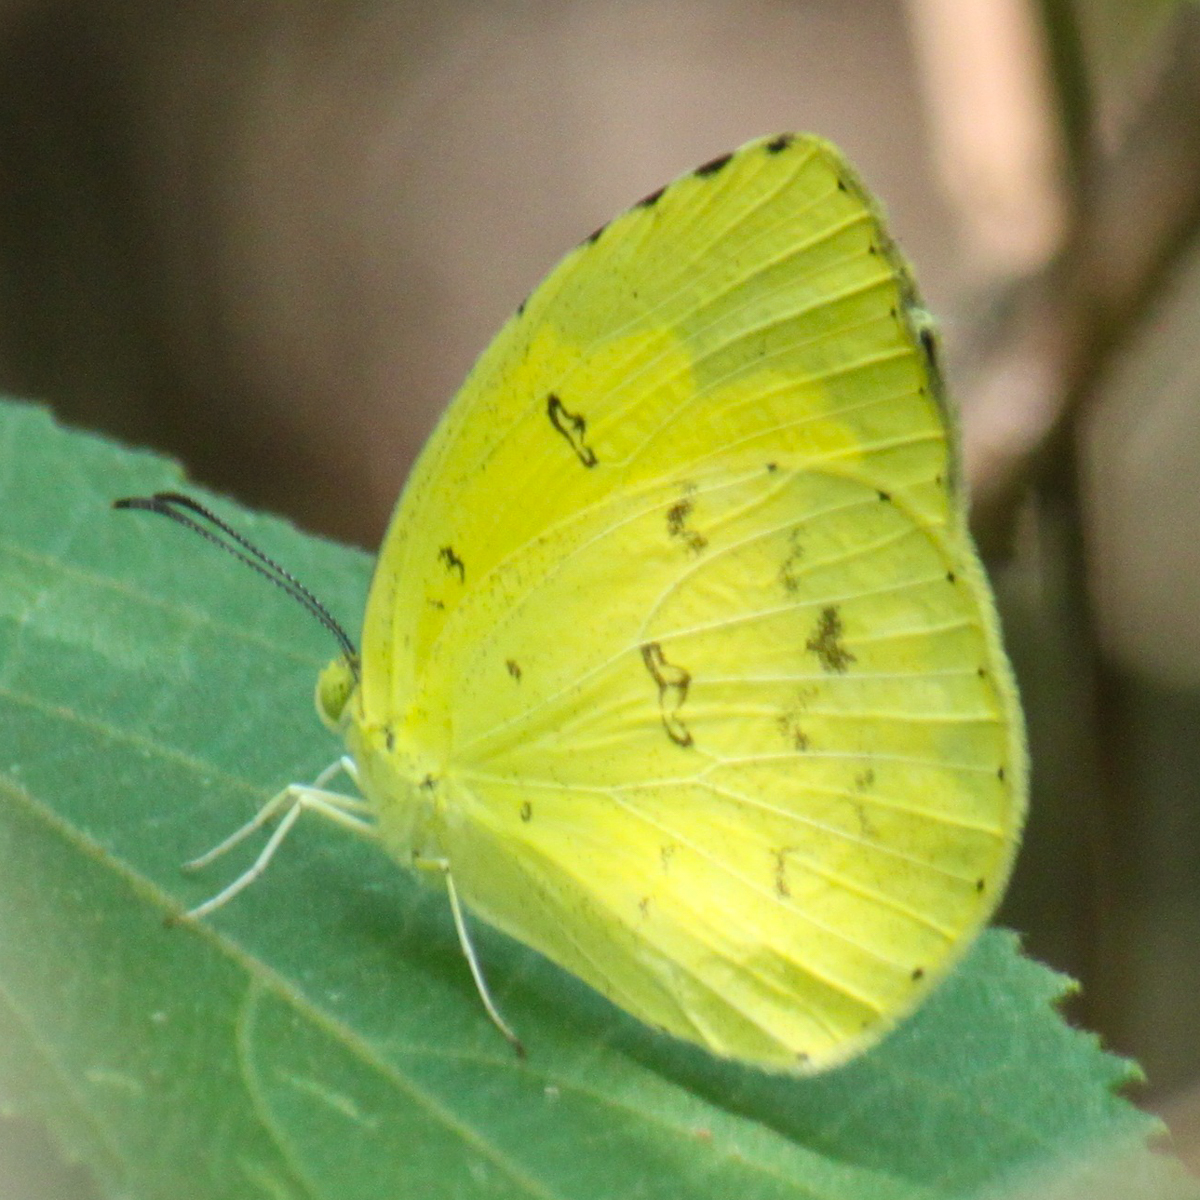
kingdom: Animalia
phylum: Arthropoda
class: Insecta
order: Lepidoptera
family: Pieridae
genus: Eurema
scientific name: Eurema hecabe
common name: Pale grass yellow
